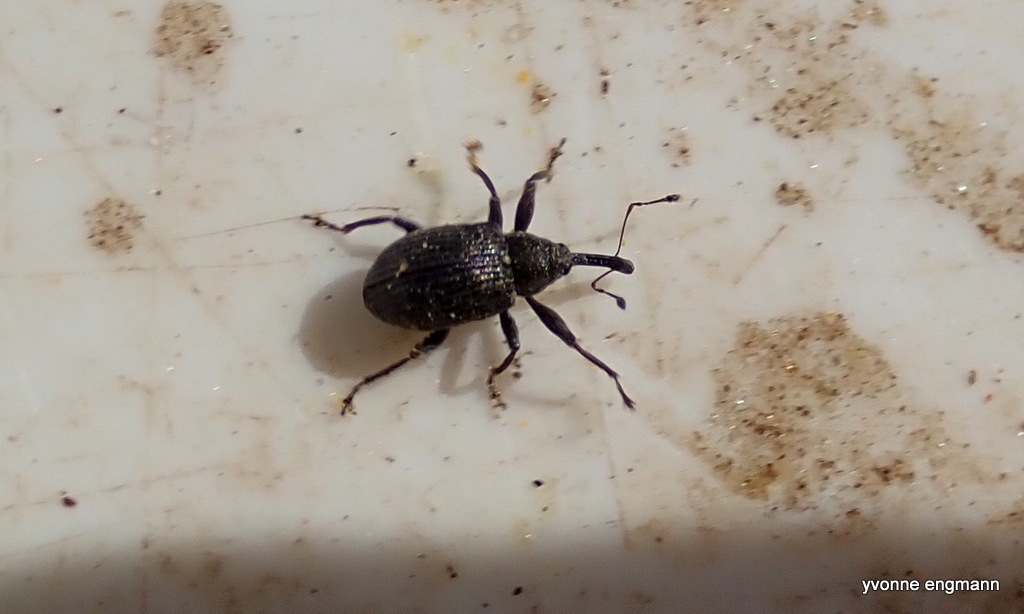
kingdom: Animalia
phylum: Arthropoda
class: Insecta
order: Coleoptera
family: Curculionidae
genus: Anthonomus
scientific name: Anthonomus rubi
